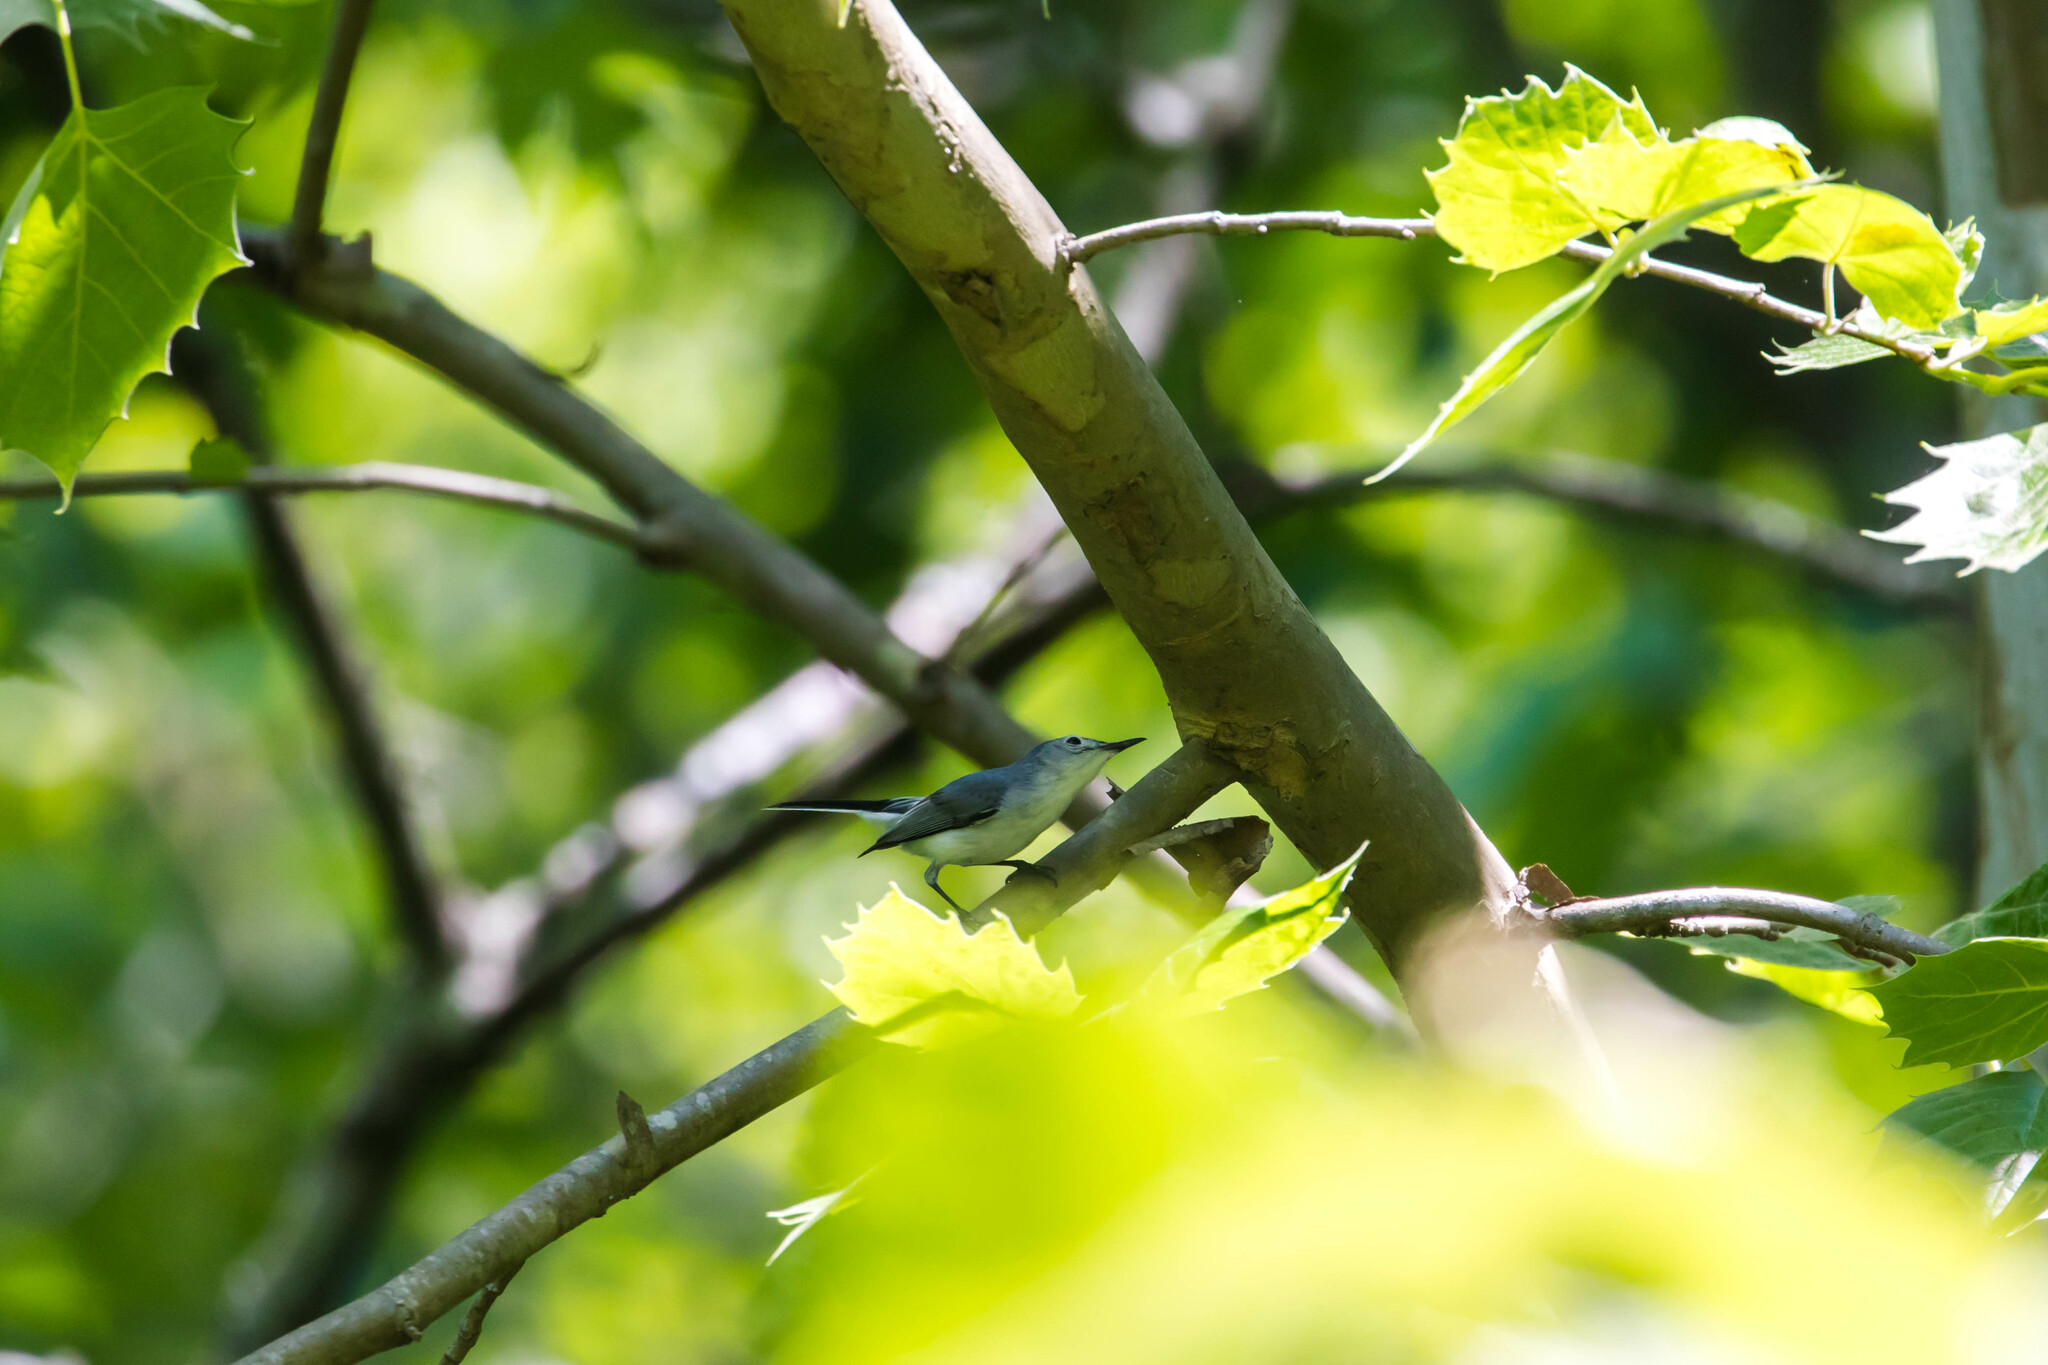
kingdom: Animalia
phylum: Chordata
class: Aves
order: Passeriformes
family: Polioptilidae
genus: Polioptila
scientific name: Polioptila caerulea
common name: Blue-gray gnatcatcher
